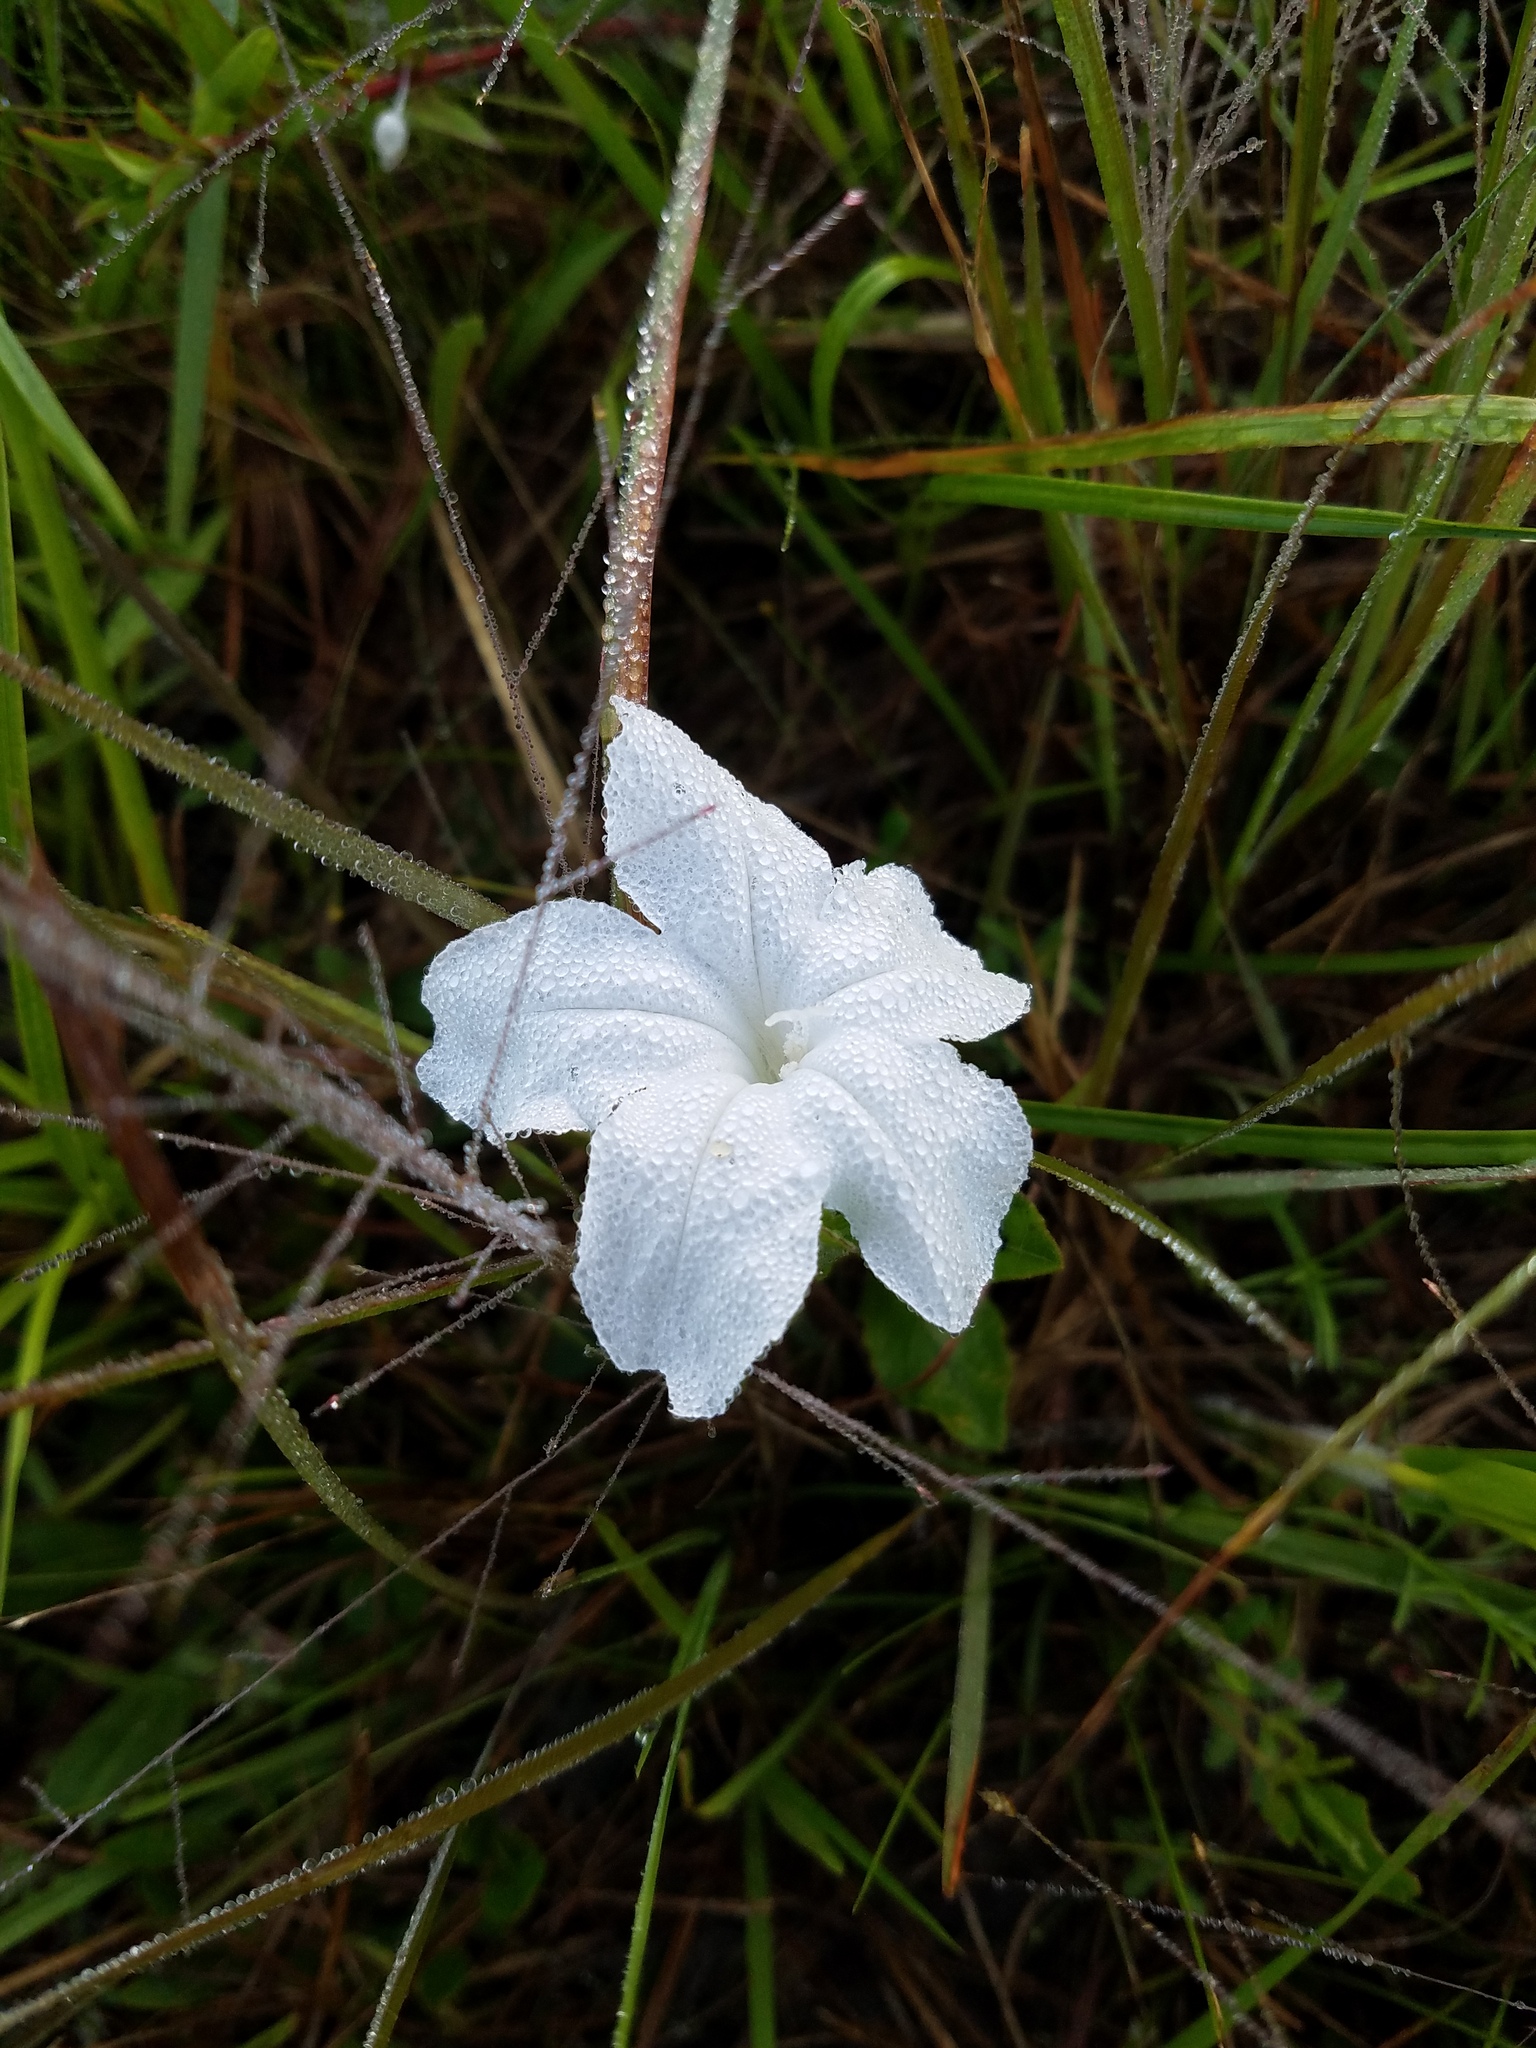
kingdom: Plantae
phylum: Tracheophyta
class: Magnoliopsida
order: Lamiales
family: Acanthaceae
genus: Ruellia
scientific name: Ruellia noctiflora
